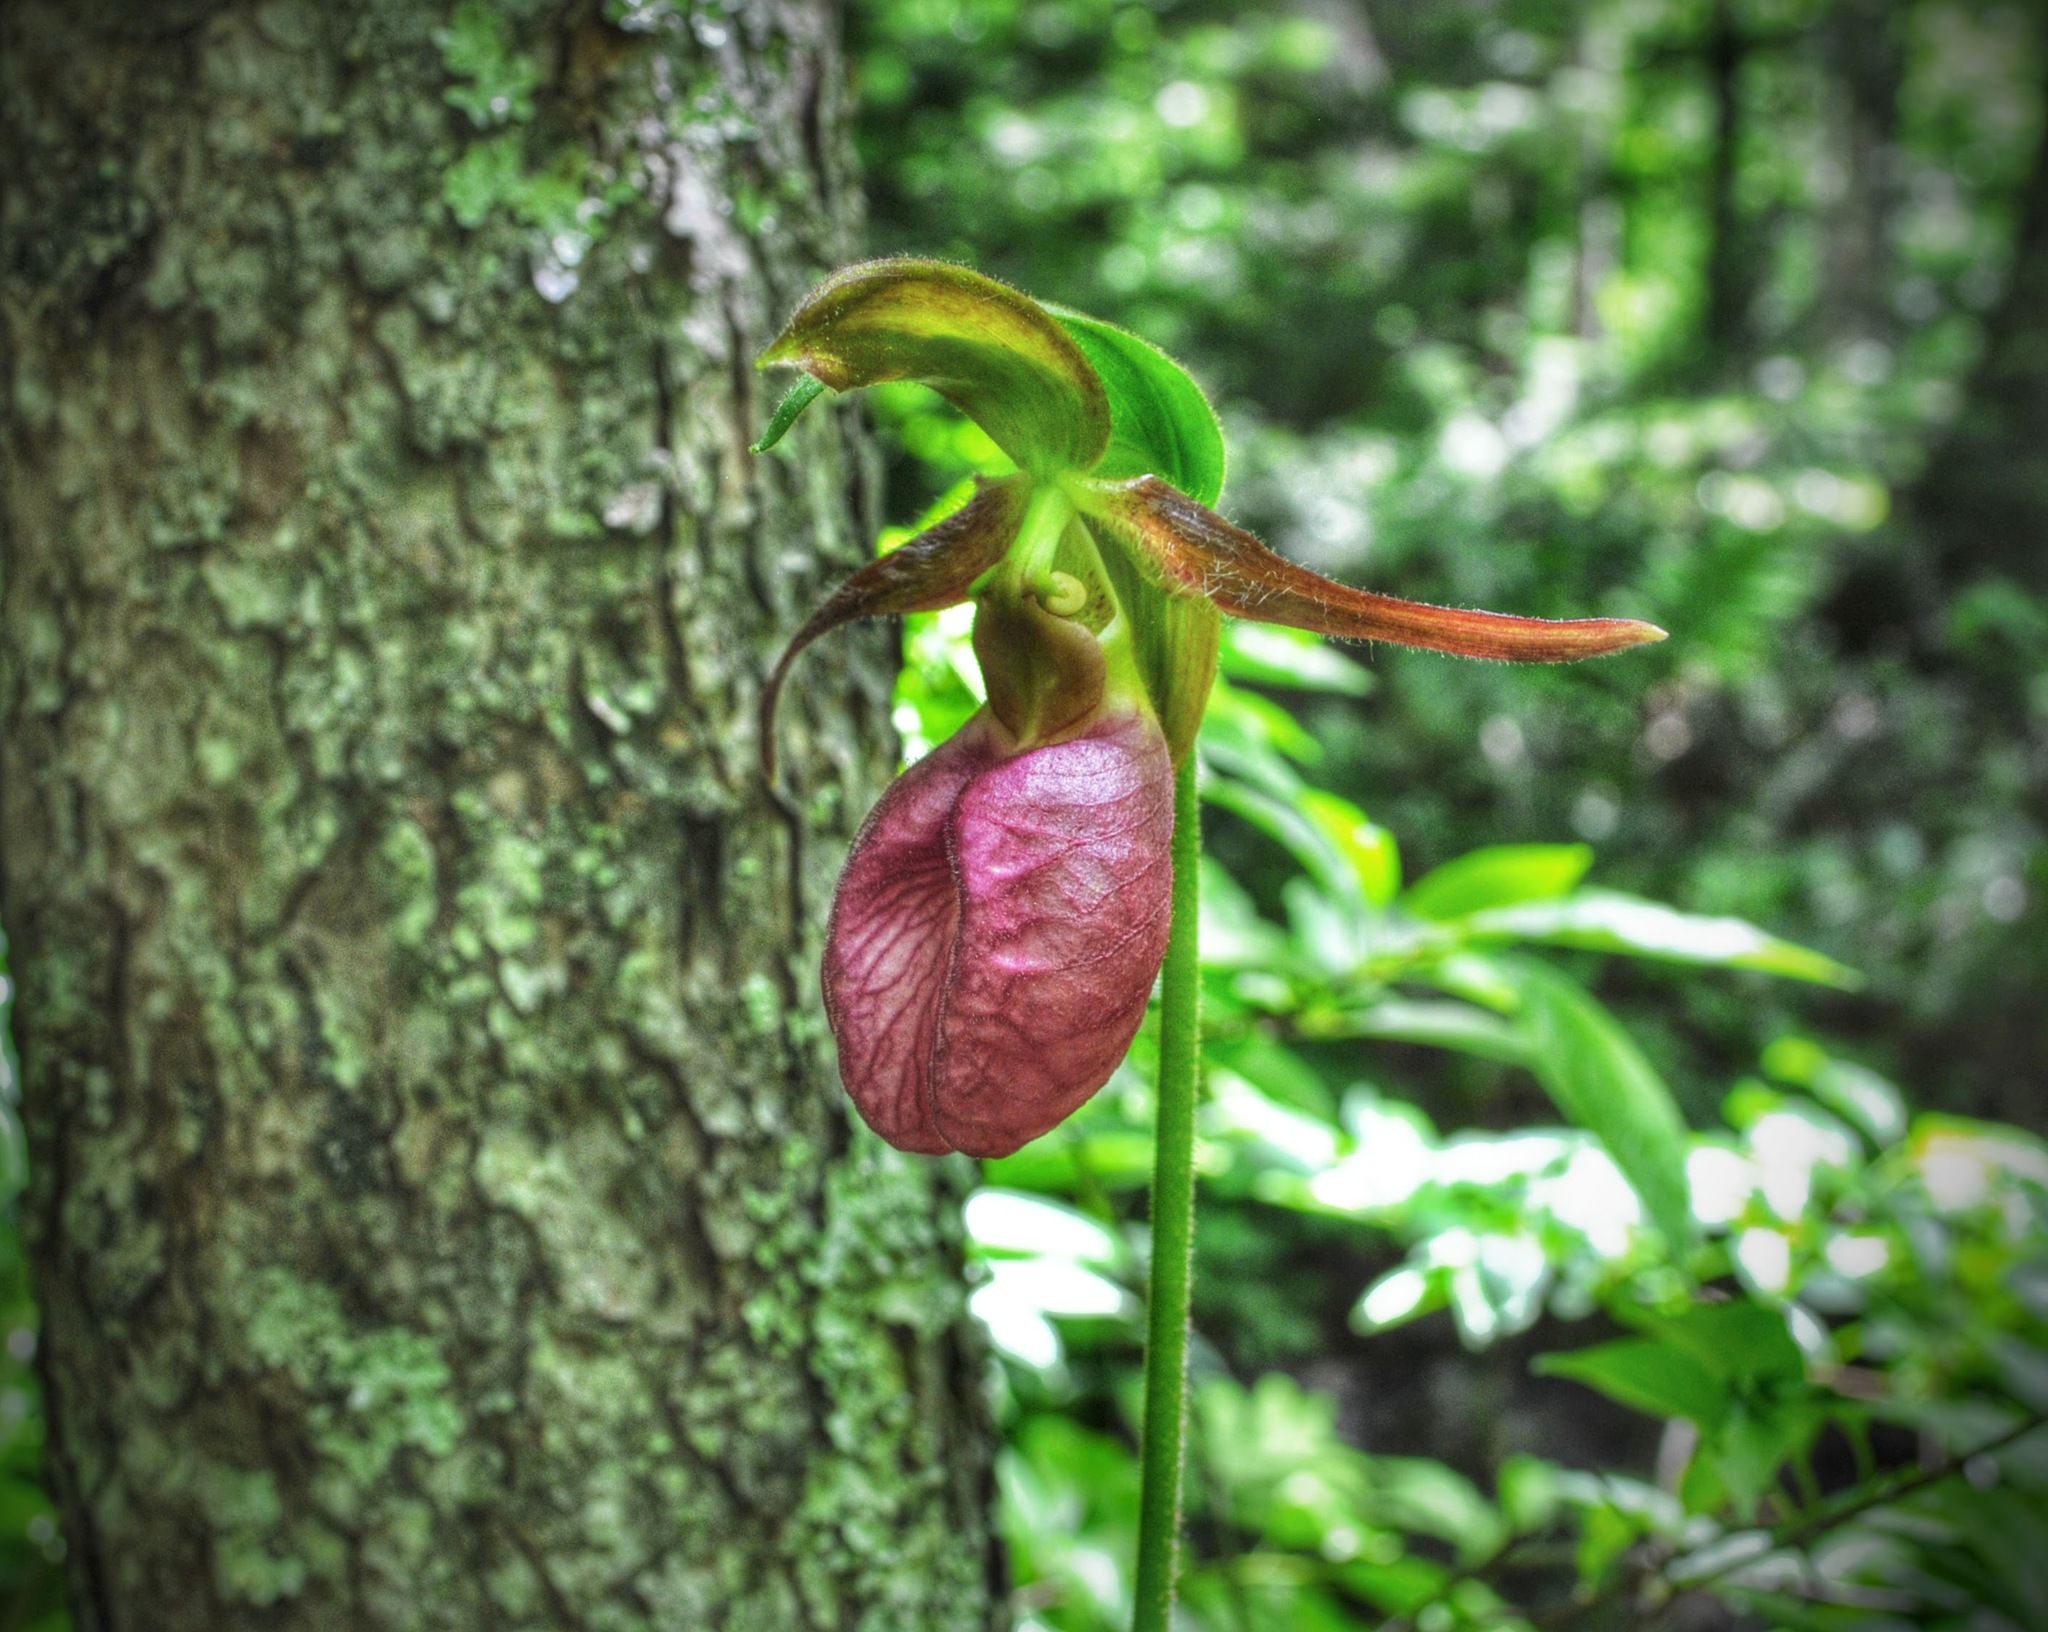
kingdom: Plantae
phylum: Tracheophyta
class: Liliopsida
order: Asparagales
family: Orchidaceae
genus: Cypripedium
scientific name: Cypripedium acaule
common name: Pink lady's-slipper
